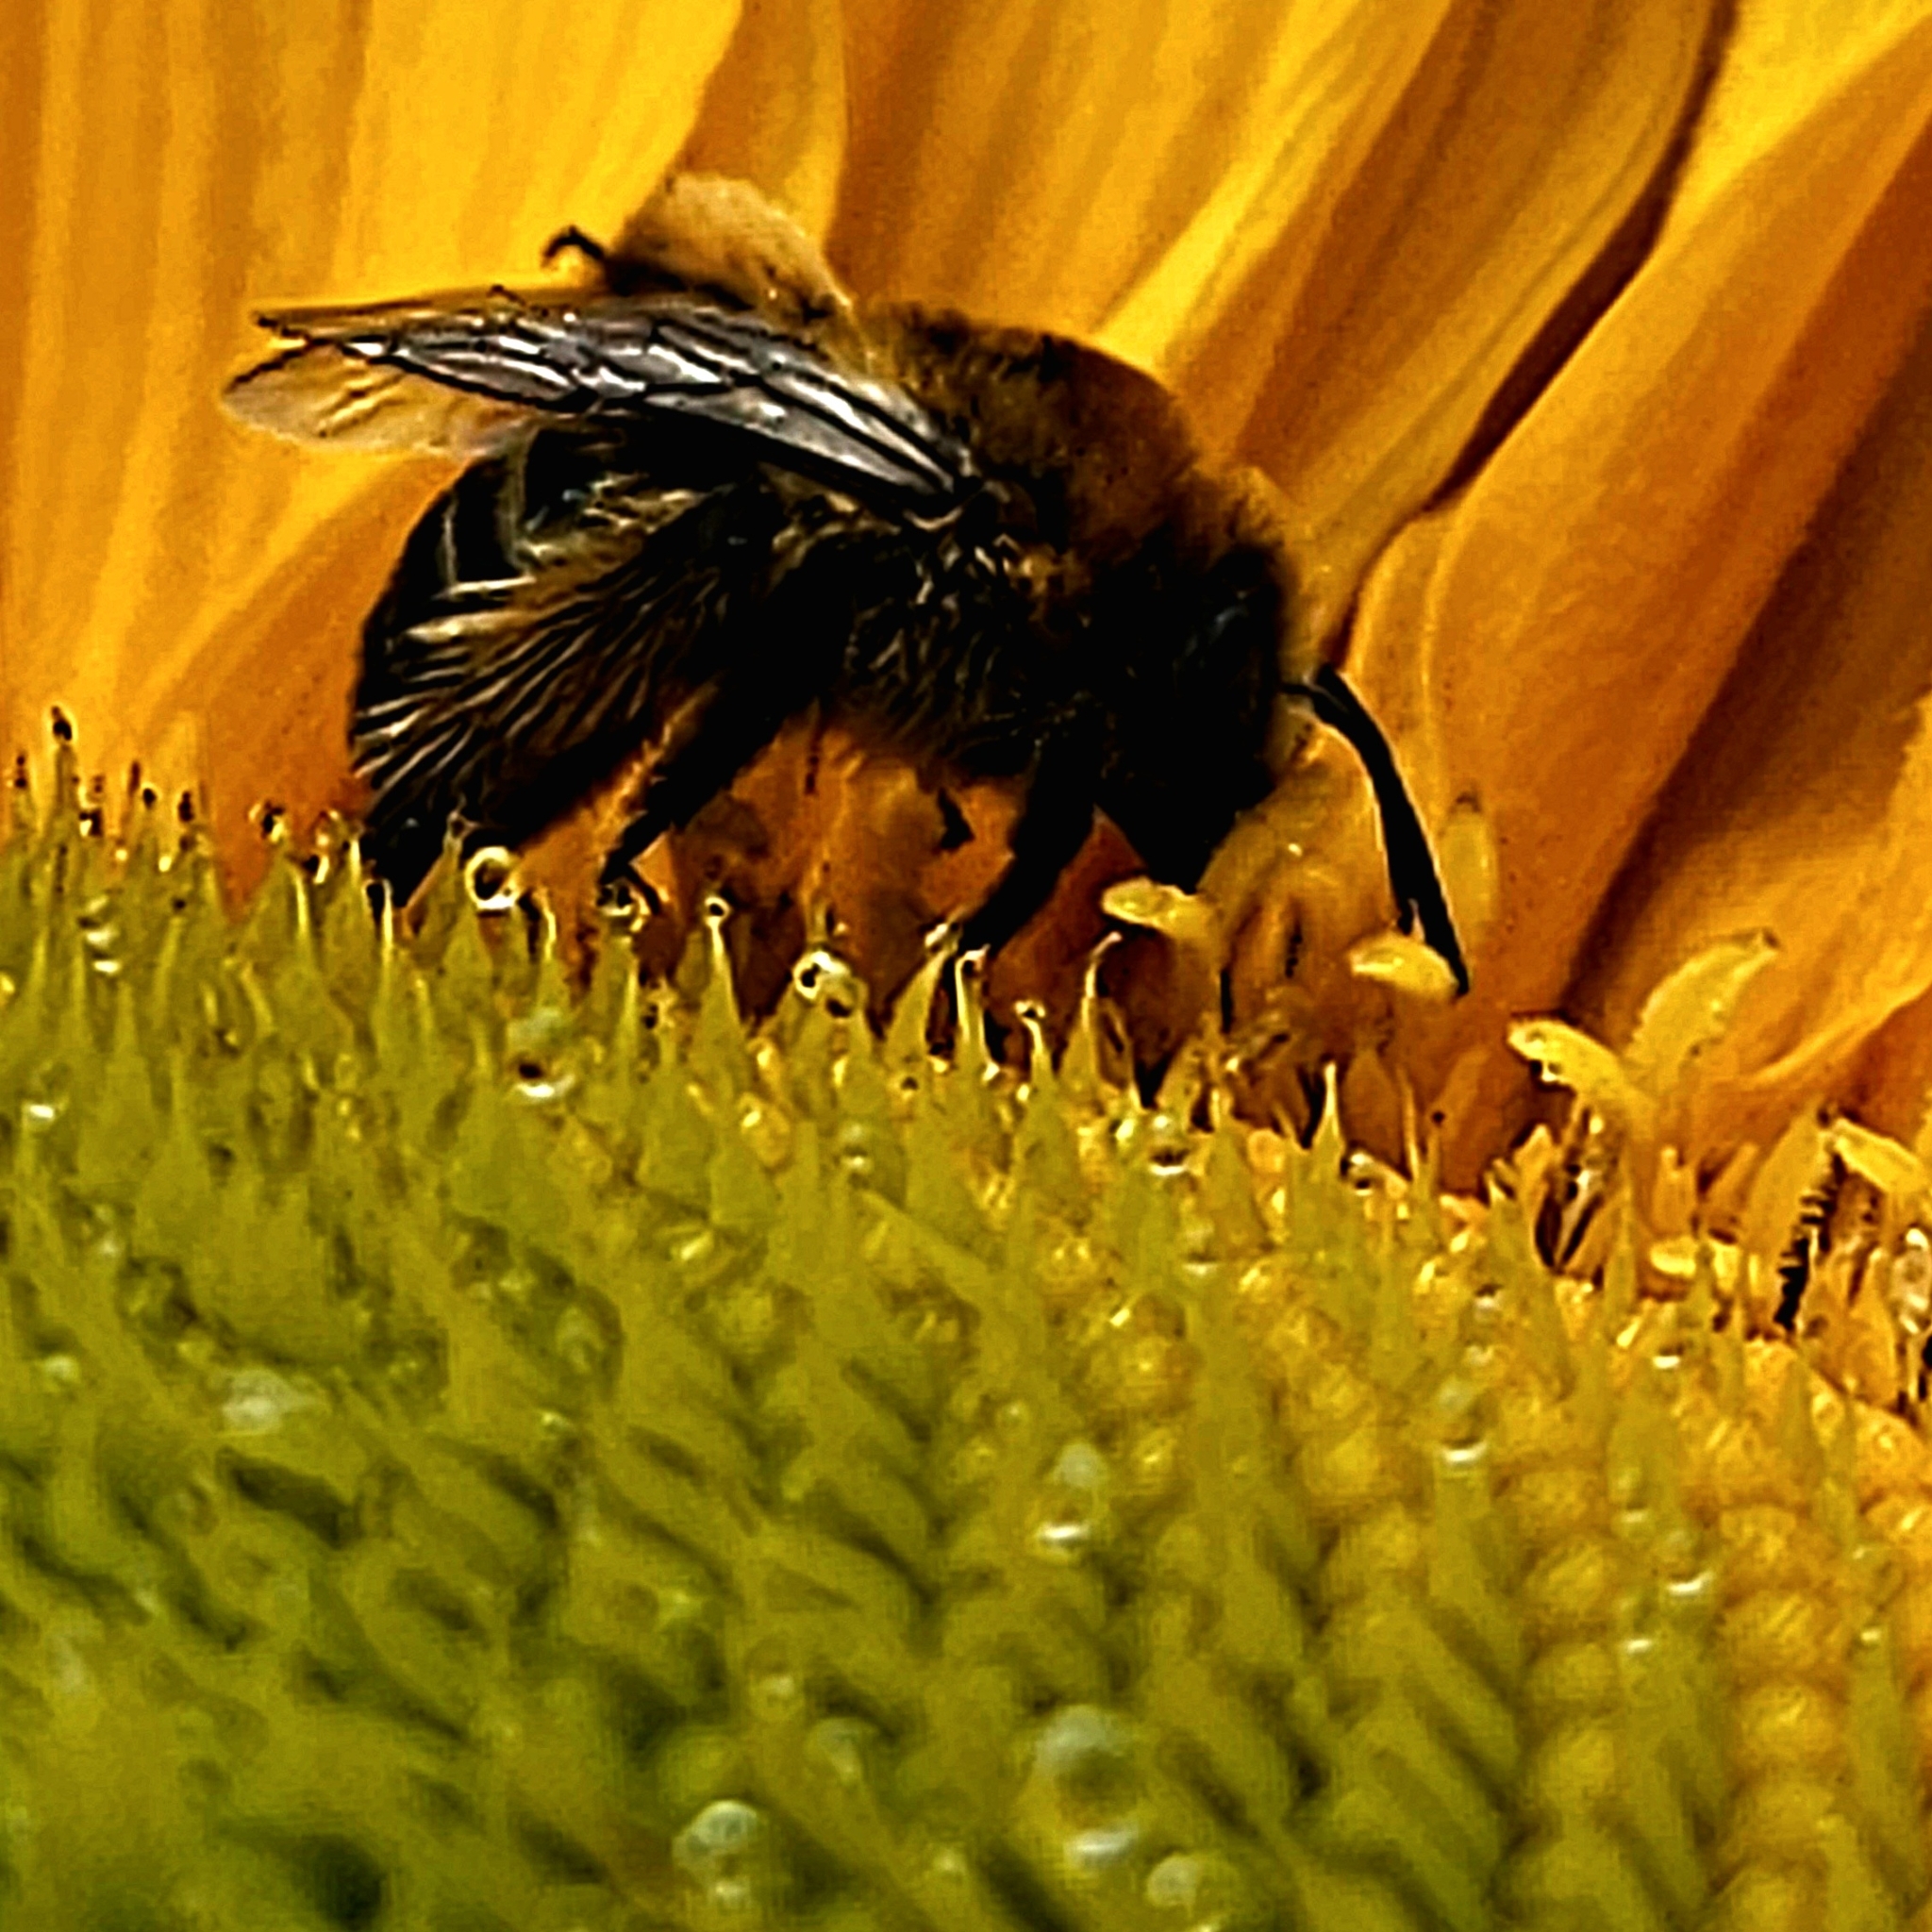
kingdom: Animalia
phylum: Arthropoda
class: Insecta
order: Hymenoptera
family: Apidae
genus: Melissodes
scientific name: Melissodes trinodis
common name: Dark-veined longhorn
